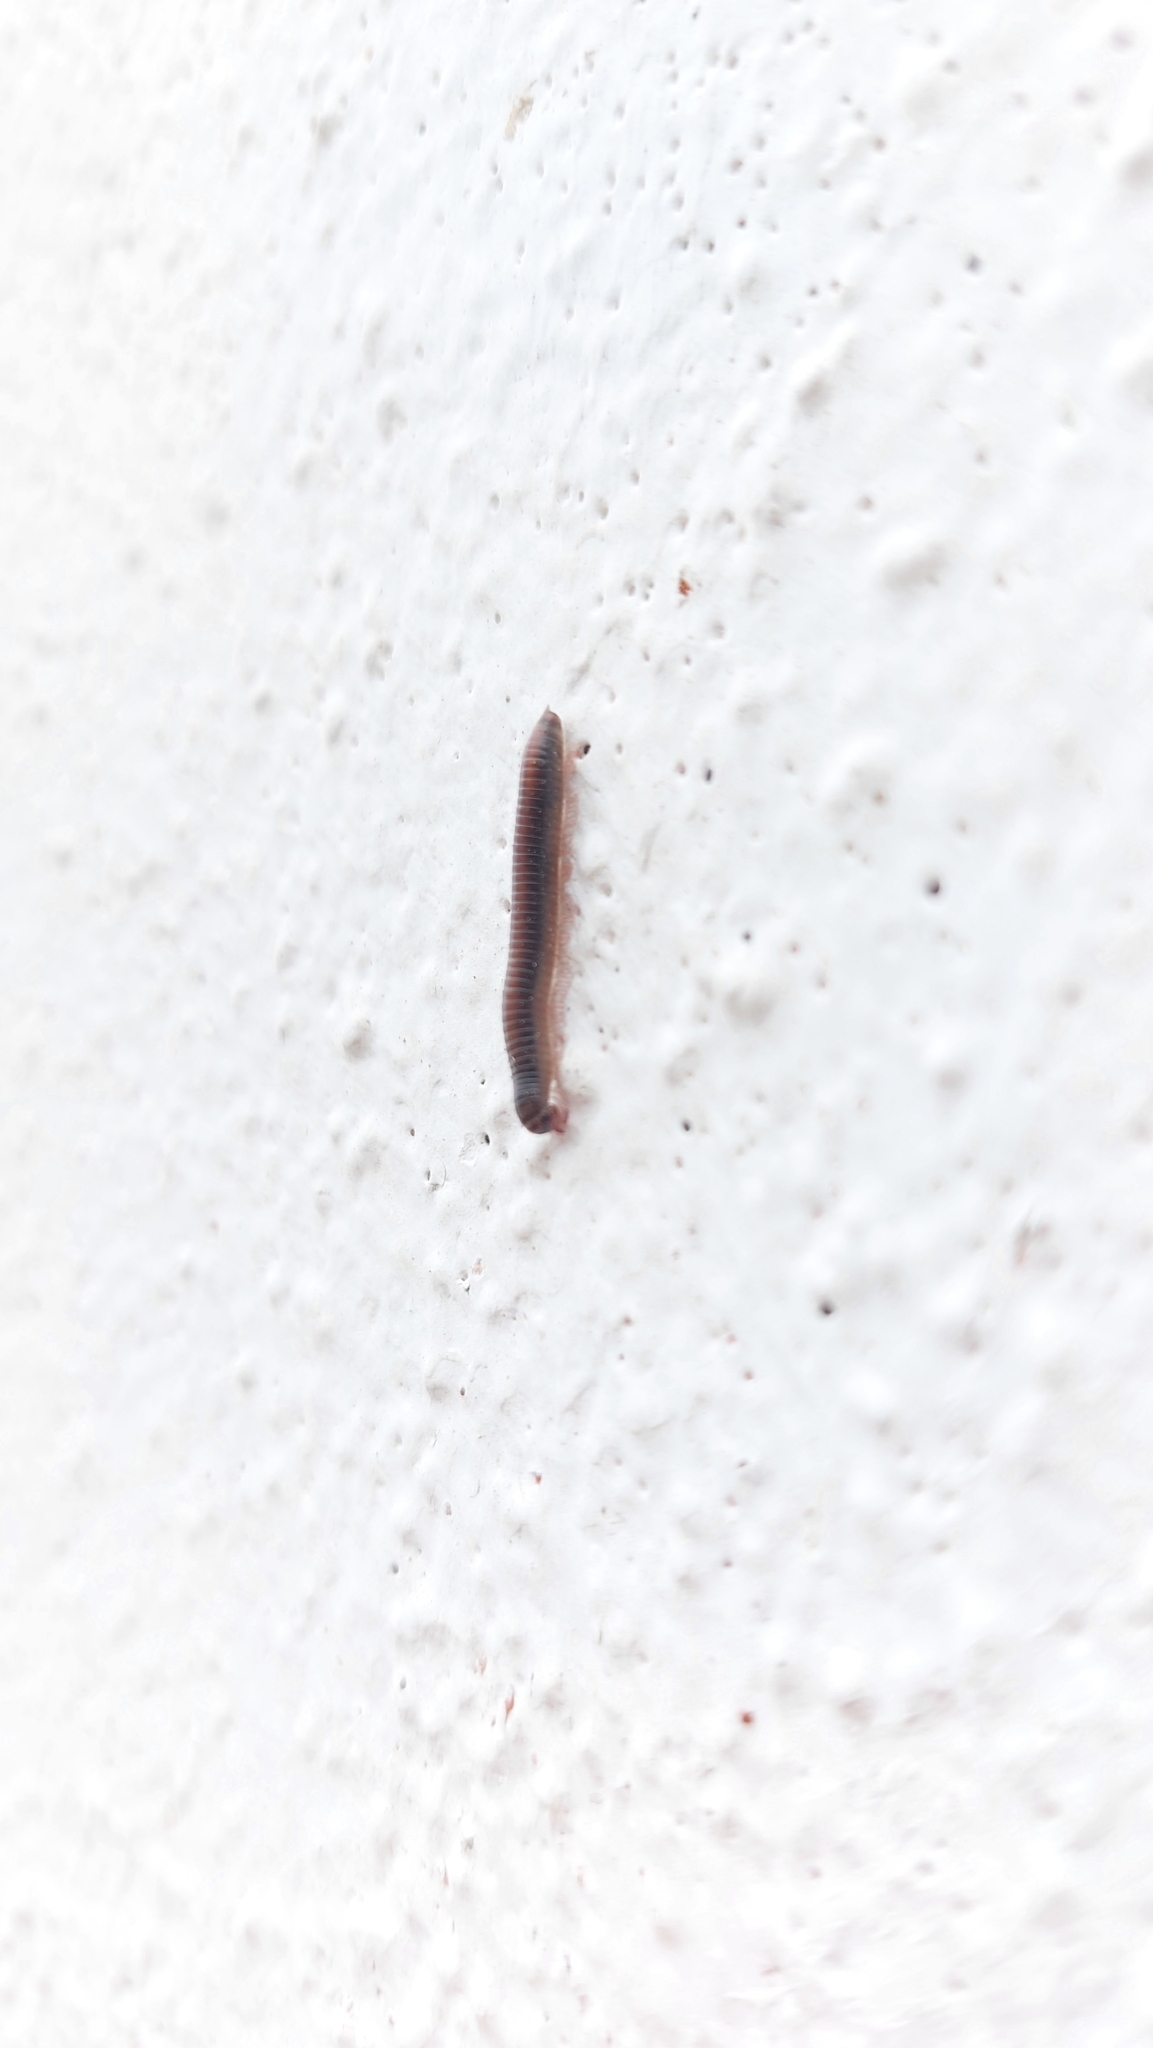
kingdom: Animalia
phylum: Arthropoda
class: Diplopoda
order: Julida
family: Julidae
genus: Ommatoiulus
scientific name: Ommatoiulus moreleti
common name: Portuguese millipede
